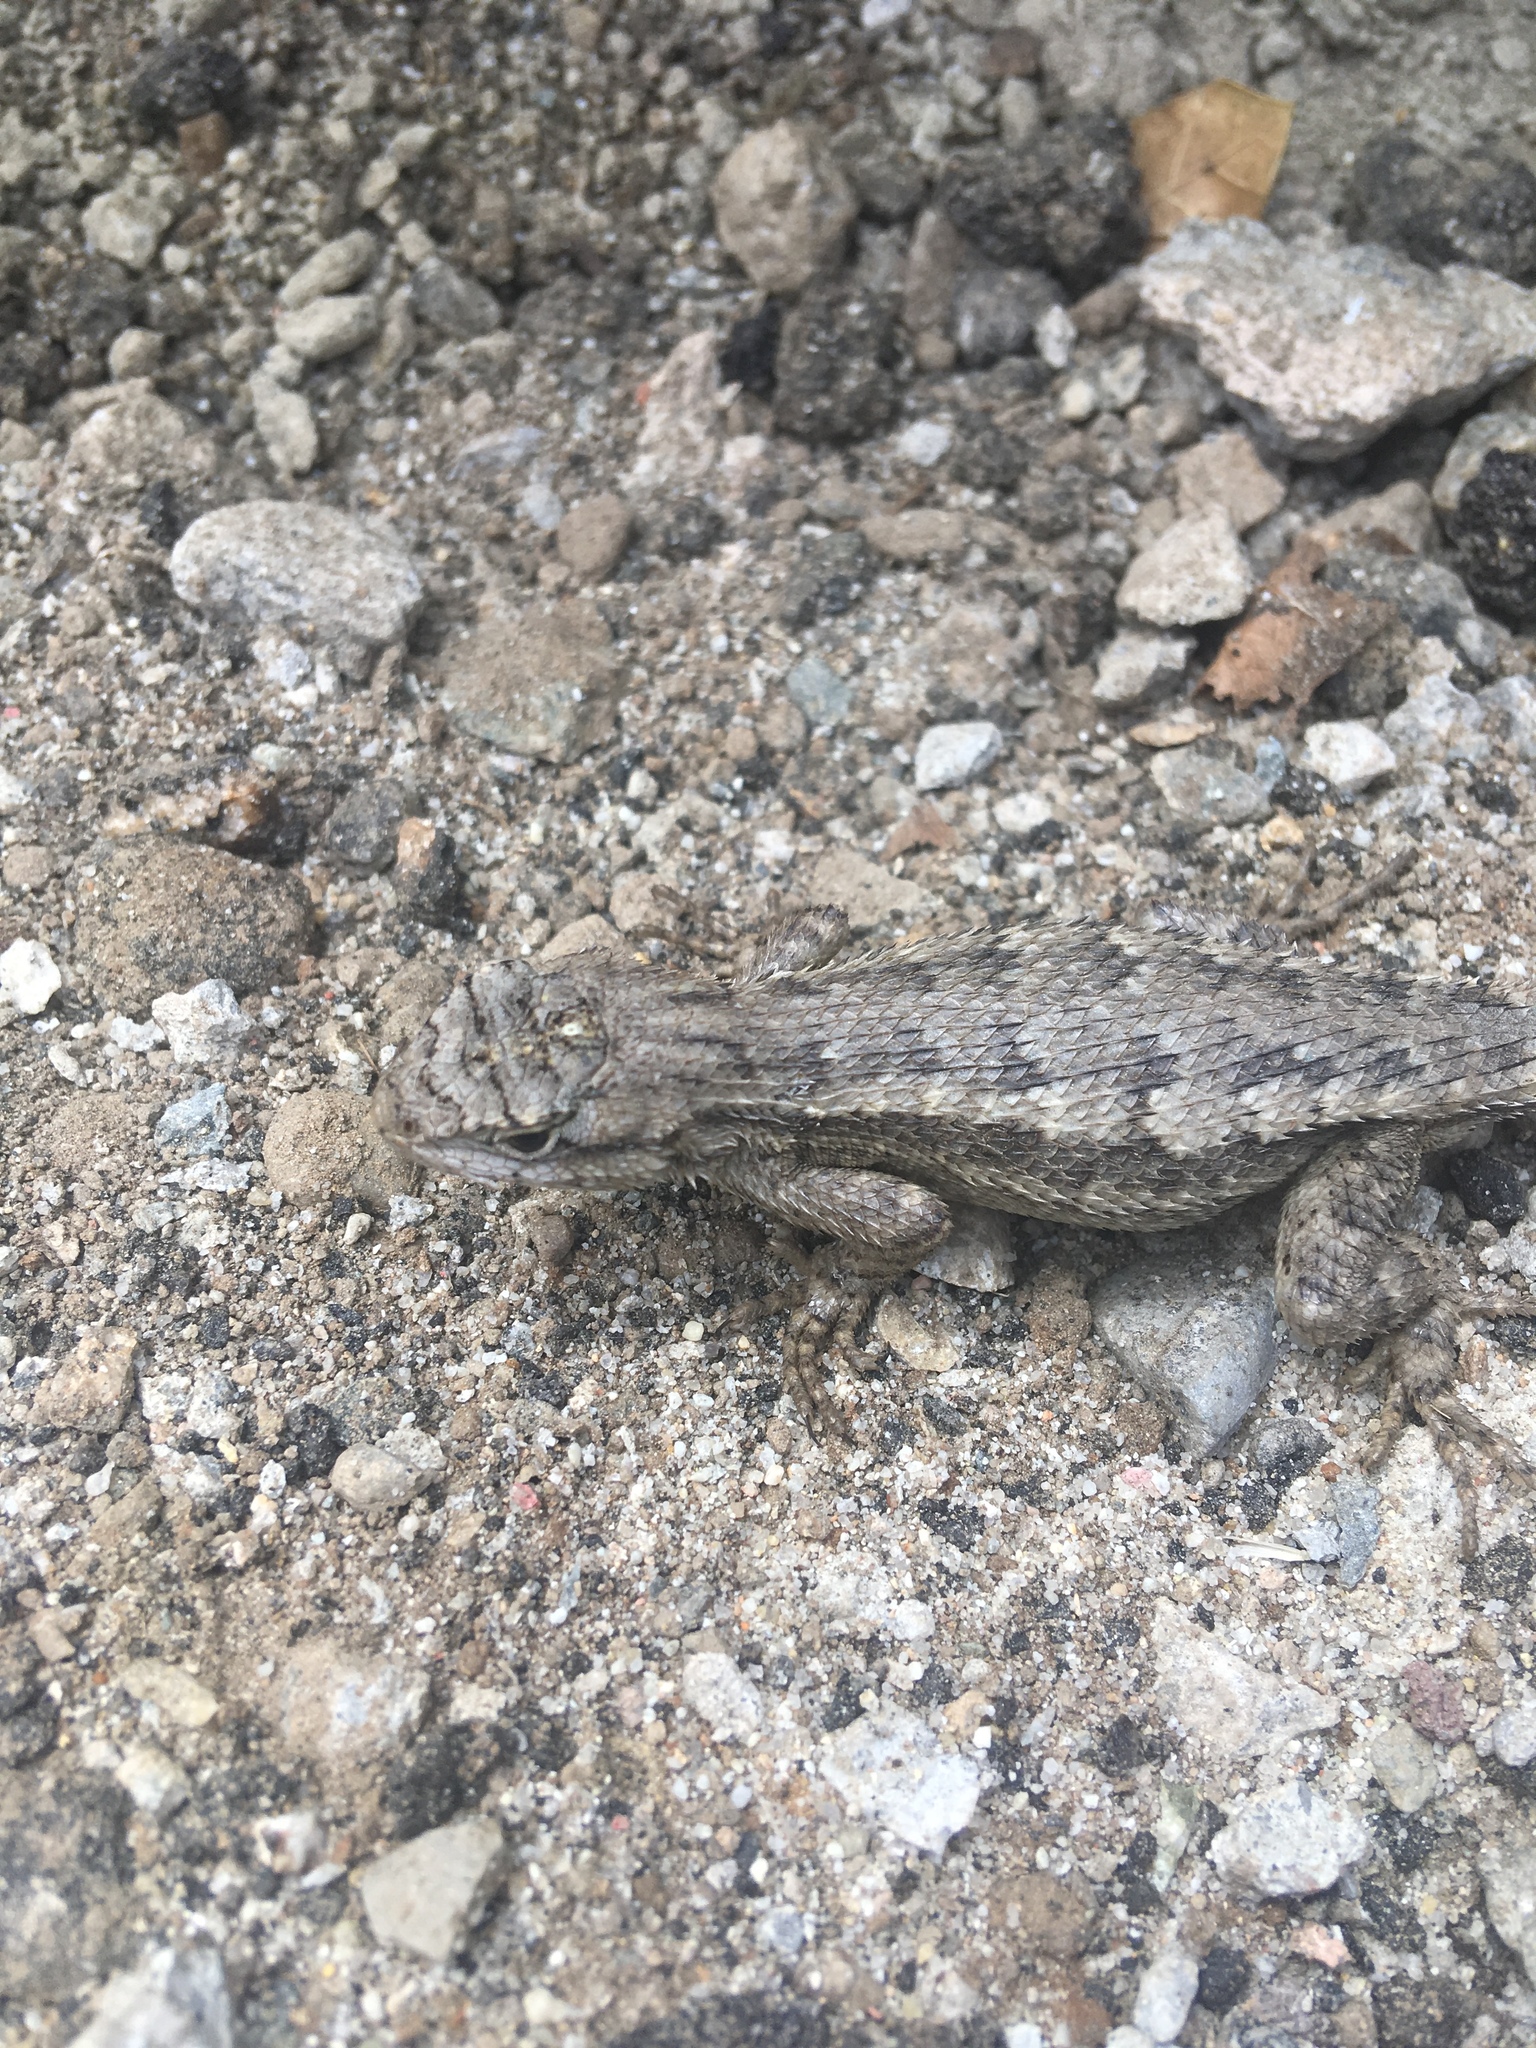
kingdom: Animalia
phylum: Chordata
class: Squamata
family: Phrynosomatidae
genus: Sceloporus
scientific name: Sceloporus occidentalis
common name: Western fence lizard
